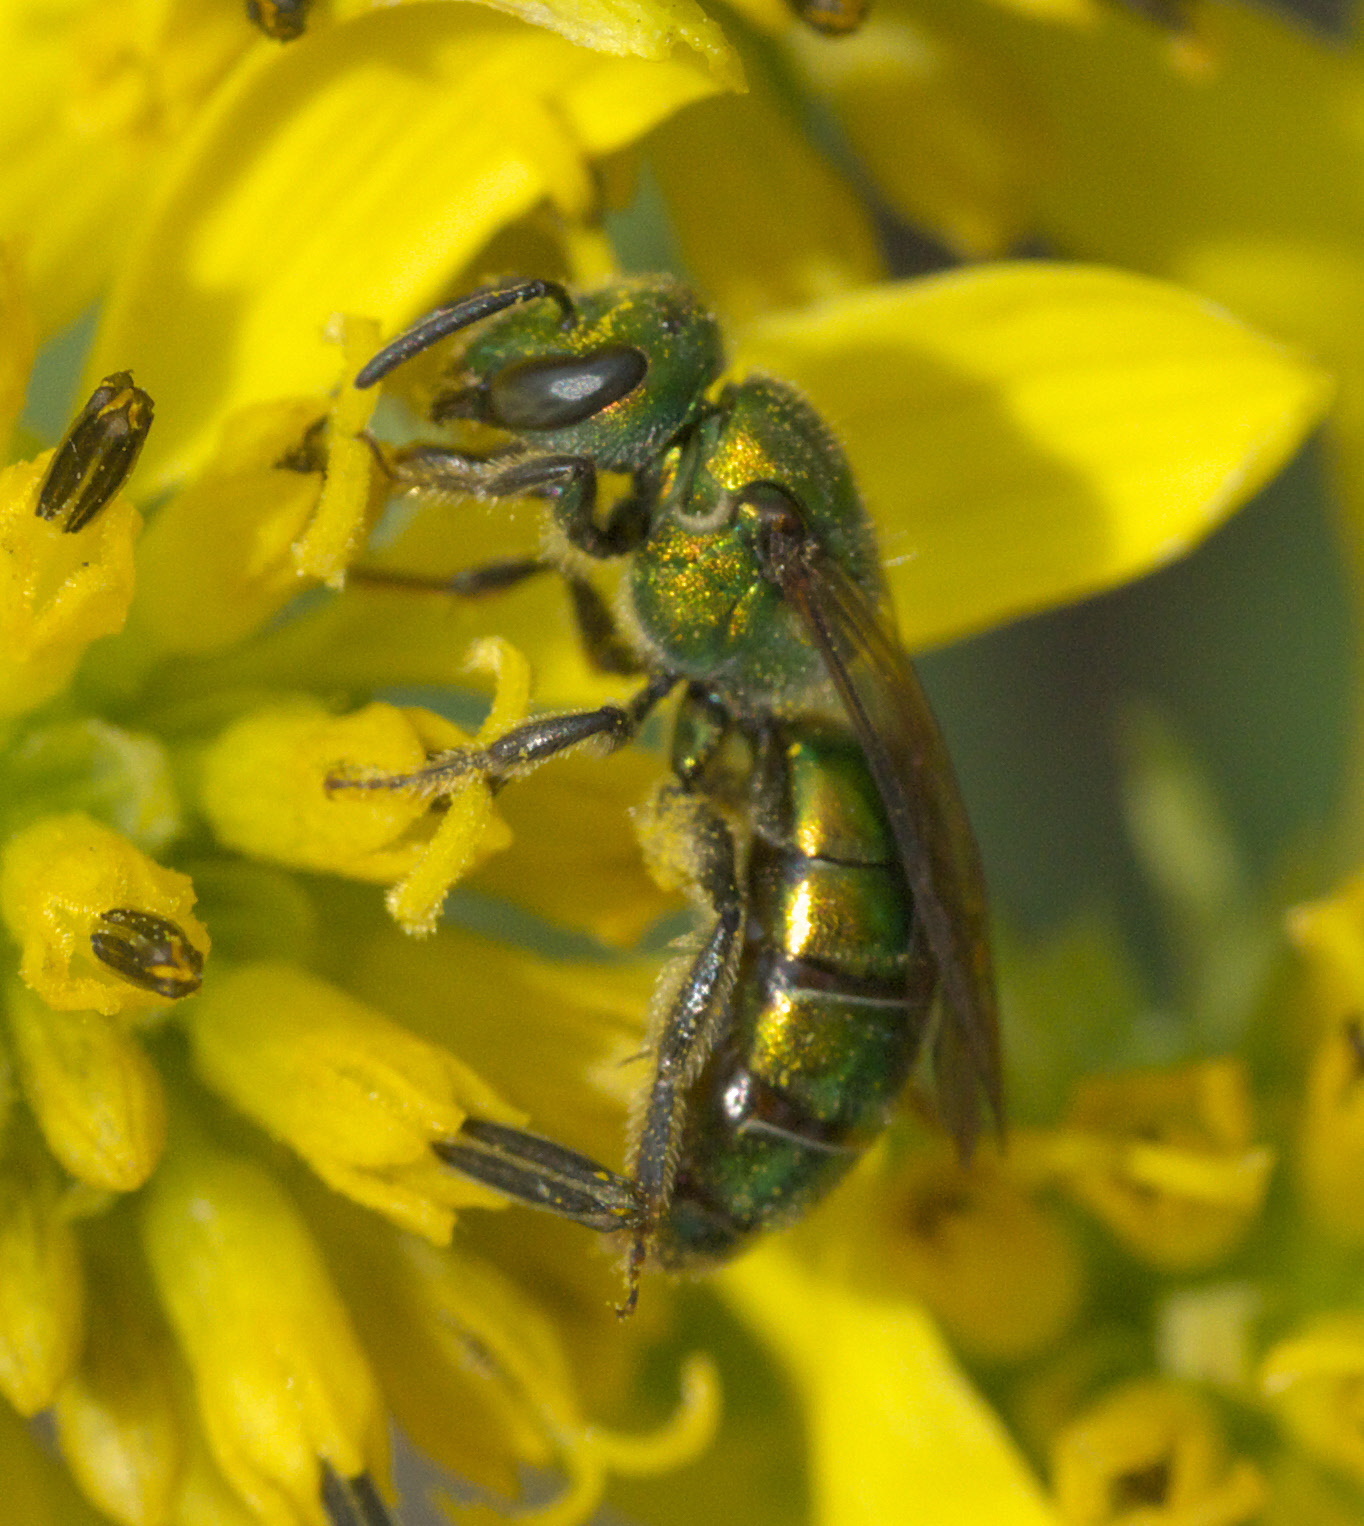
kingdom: Animalia
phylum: Arthropoda
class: Insecta
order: Hymenoptera
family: Halictidae
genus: Augochlora
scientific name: Augochlora pura
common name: Pure green sweat bee
